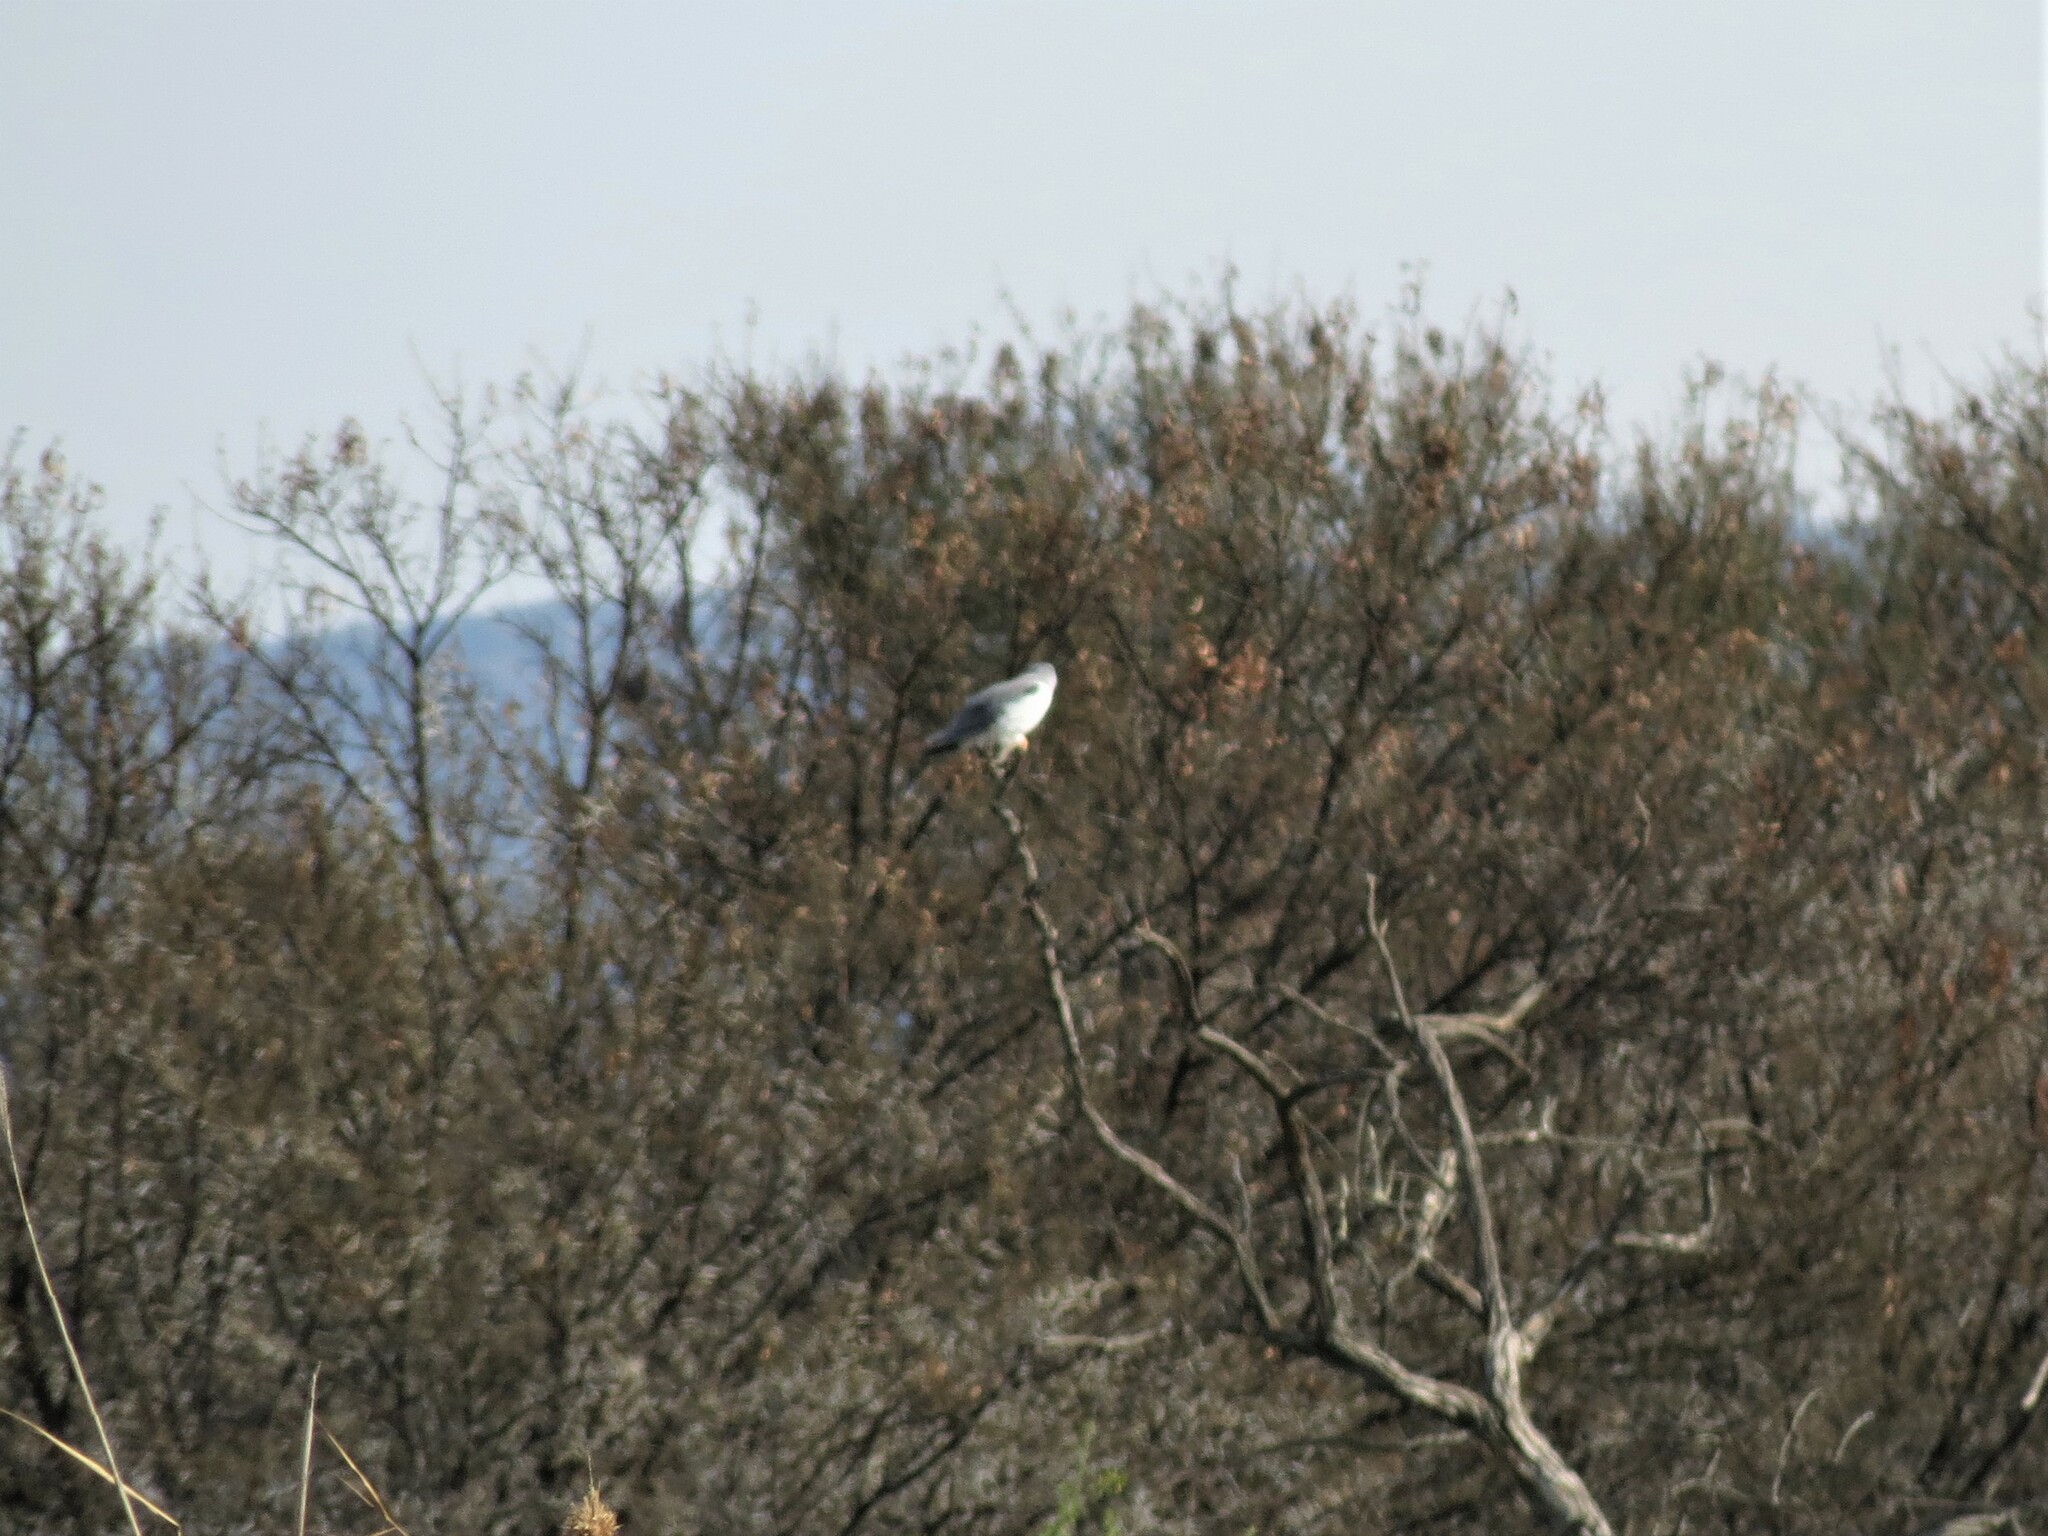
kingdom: Animalia
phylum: Chordata
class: Aves
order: Accipitriformes
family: Accipitridae
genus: Elanus
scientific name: Elanus caeruleus
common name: Black-winged kite
